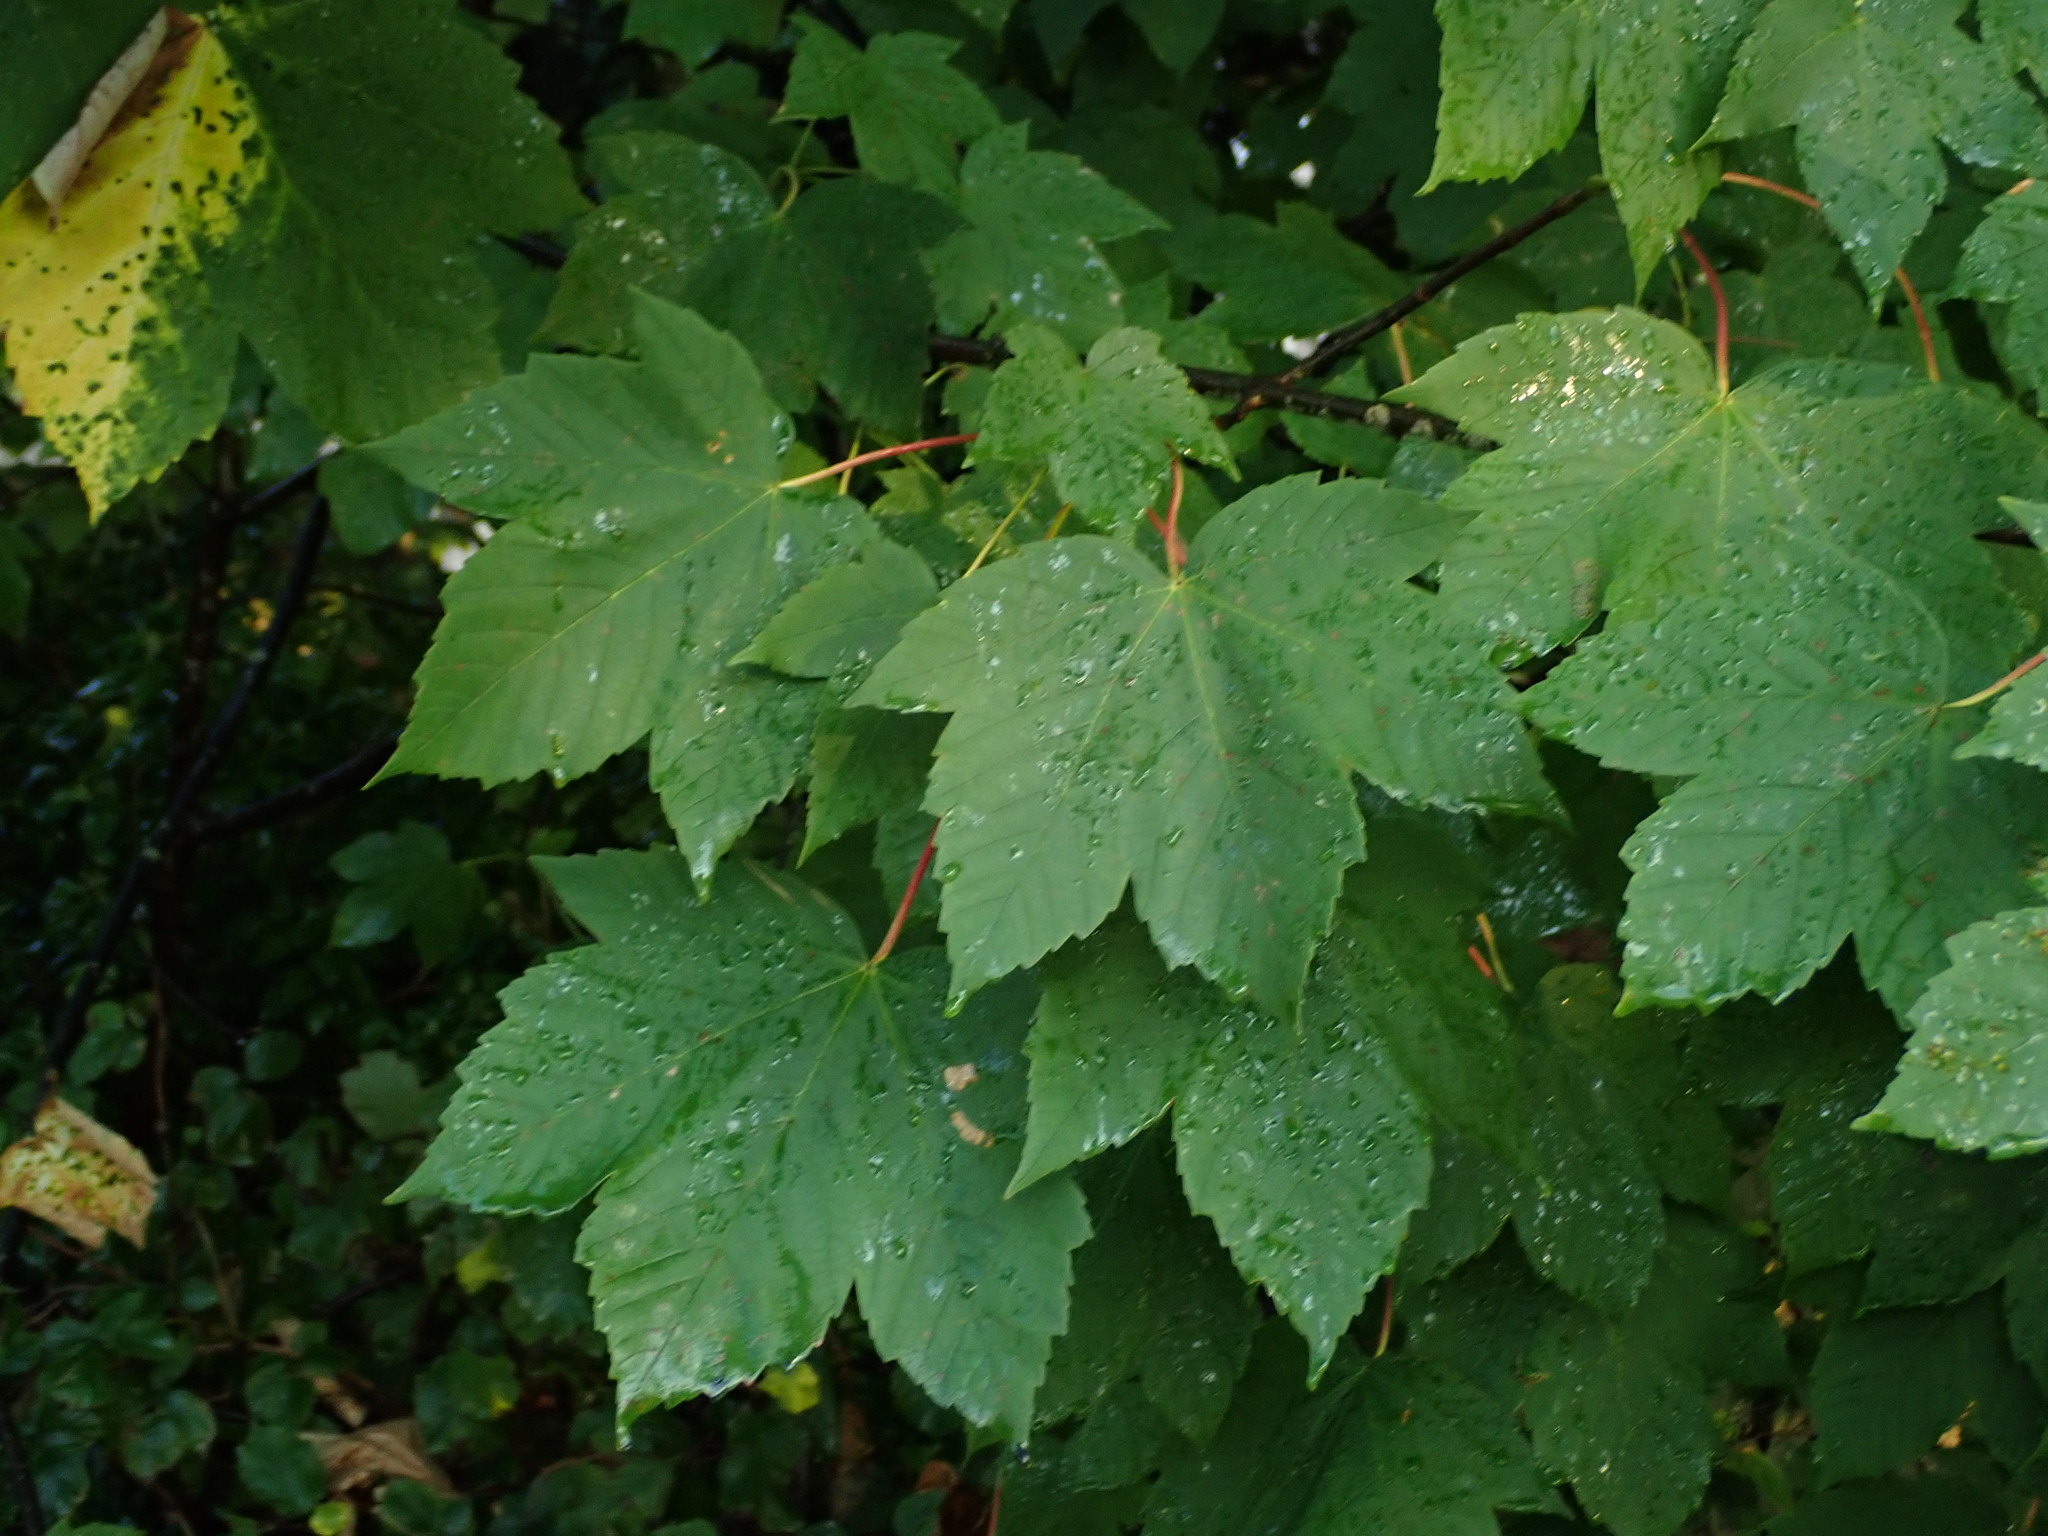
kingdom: Plantae
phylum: Tracheophyta
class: Magnoliopsida
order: Sapindales
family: Sapindaceae
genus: Acer
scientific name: Acer pseudoplatanus
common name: Sycamore
